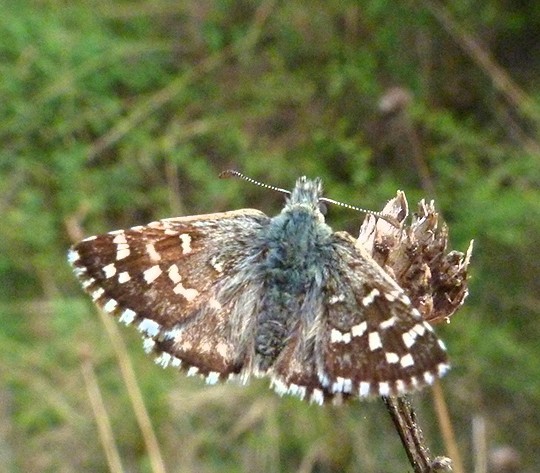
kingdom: Animalia
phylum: Arthropoda
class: Insecta
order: Lepidoptera
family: Hesperiidae
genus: Pyrgus
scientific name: Pyrgus malvoides
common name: Southern grizzled skipper
